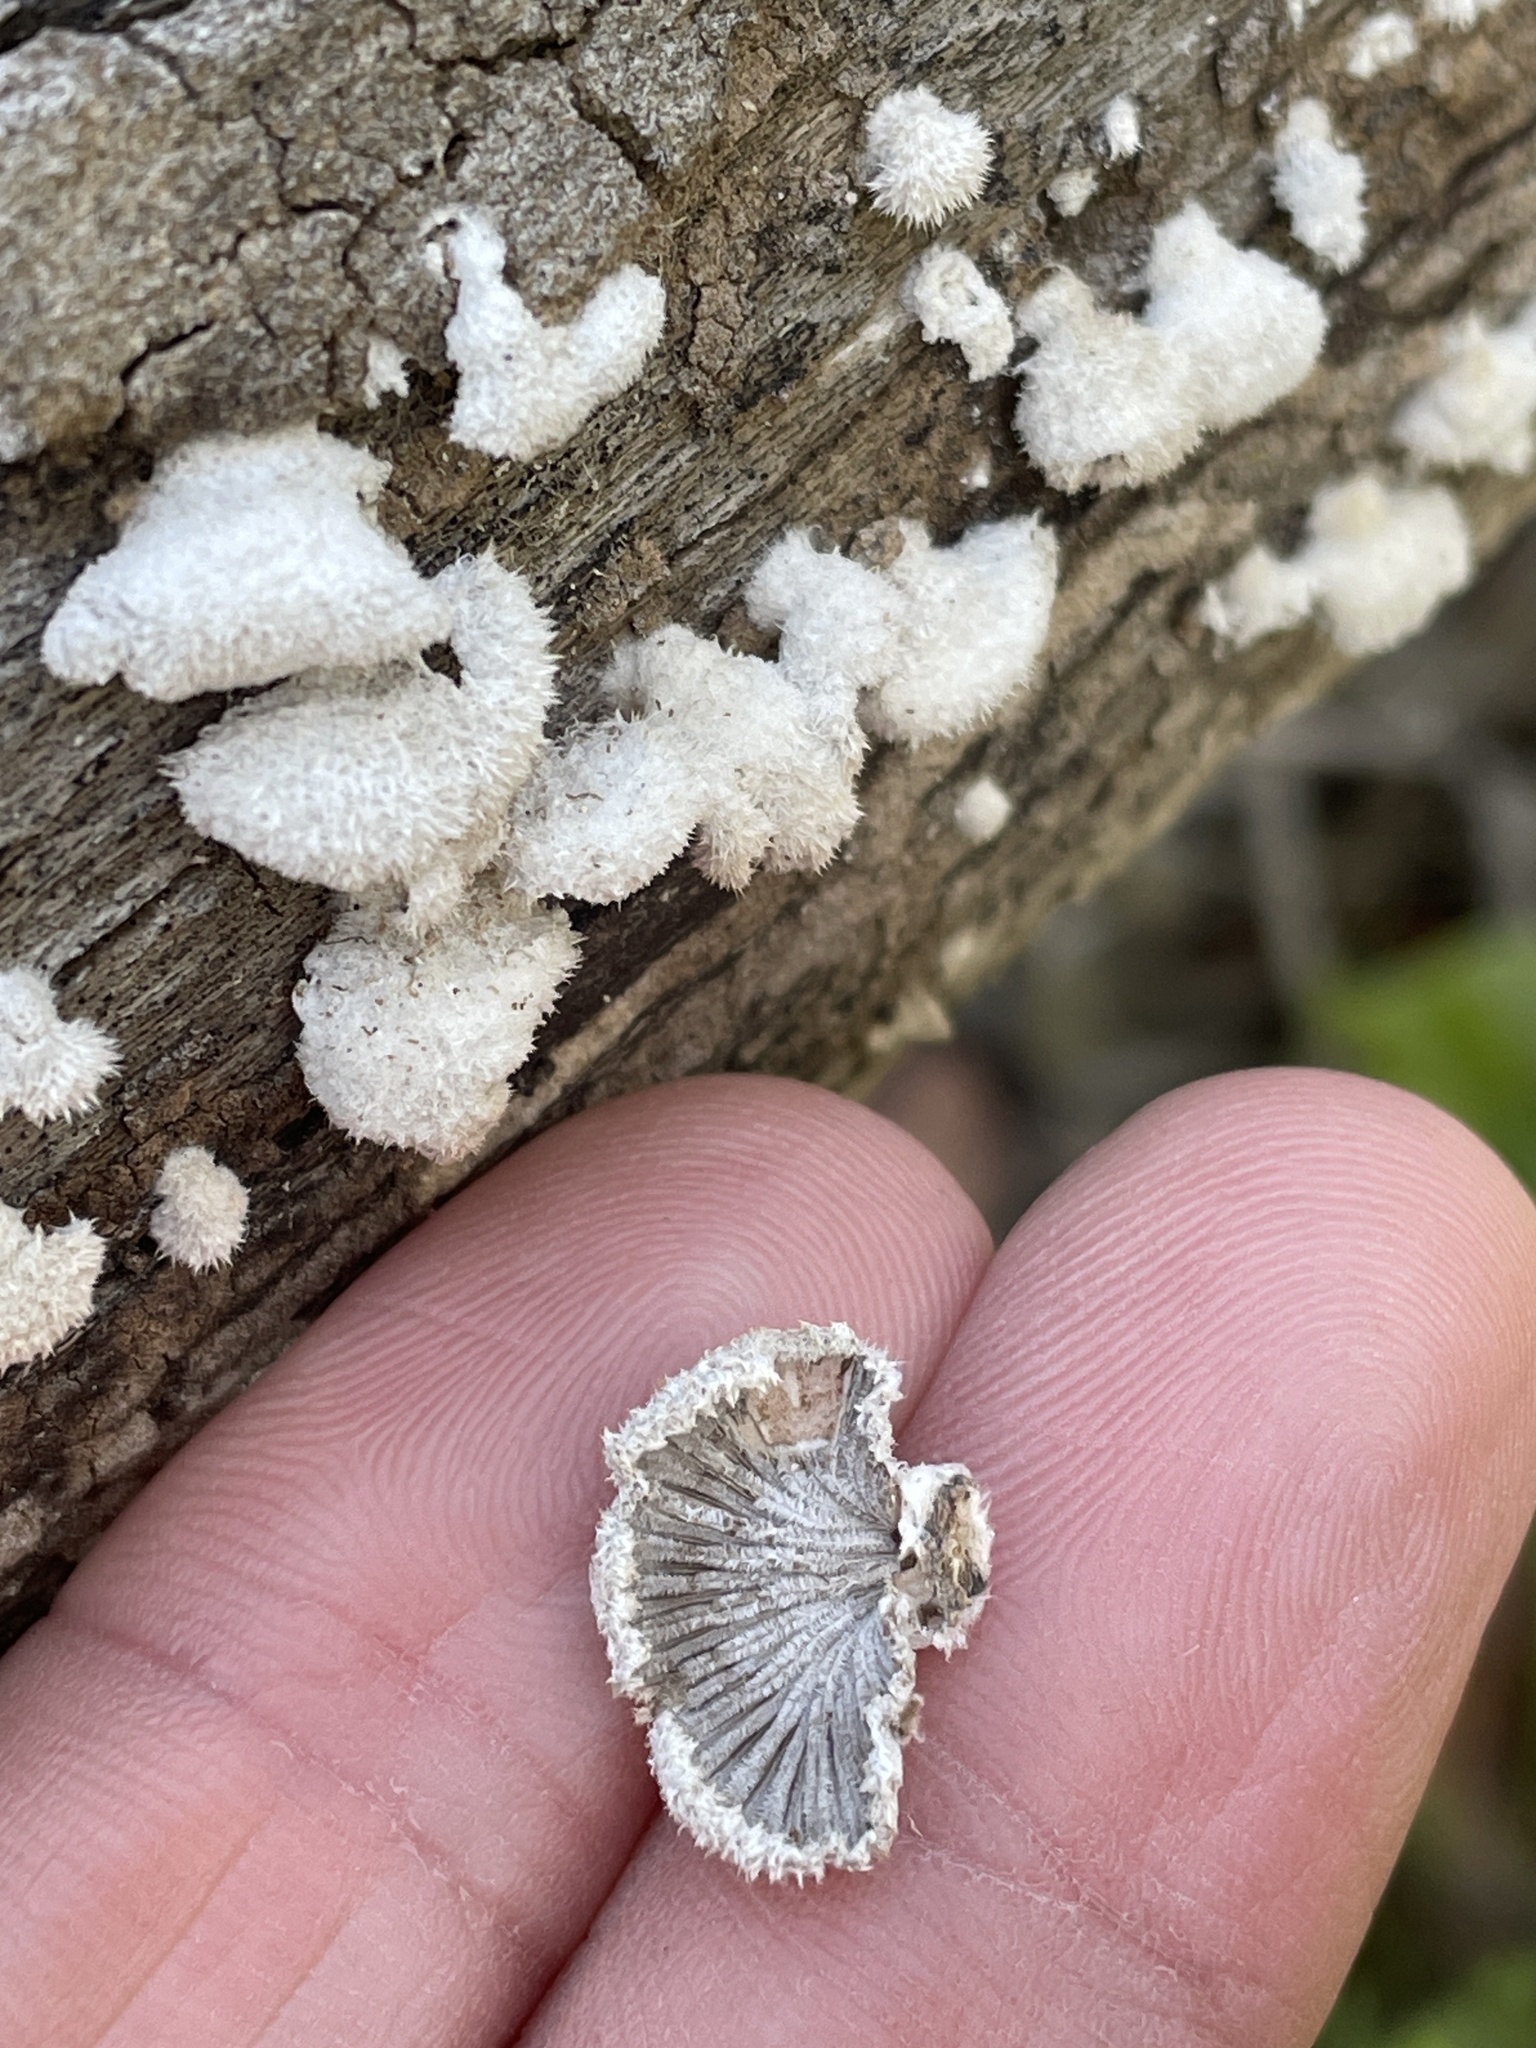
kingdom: Fungi
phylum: Basidiomycota
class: Agaricomycetes
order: Agaricales
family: Schizophyllaceae
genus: Schizophyllum
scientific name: Schizophyllum commune
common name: Common porecrust
